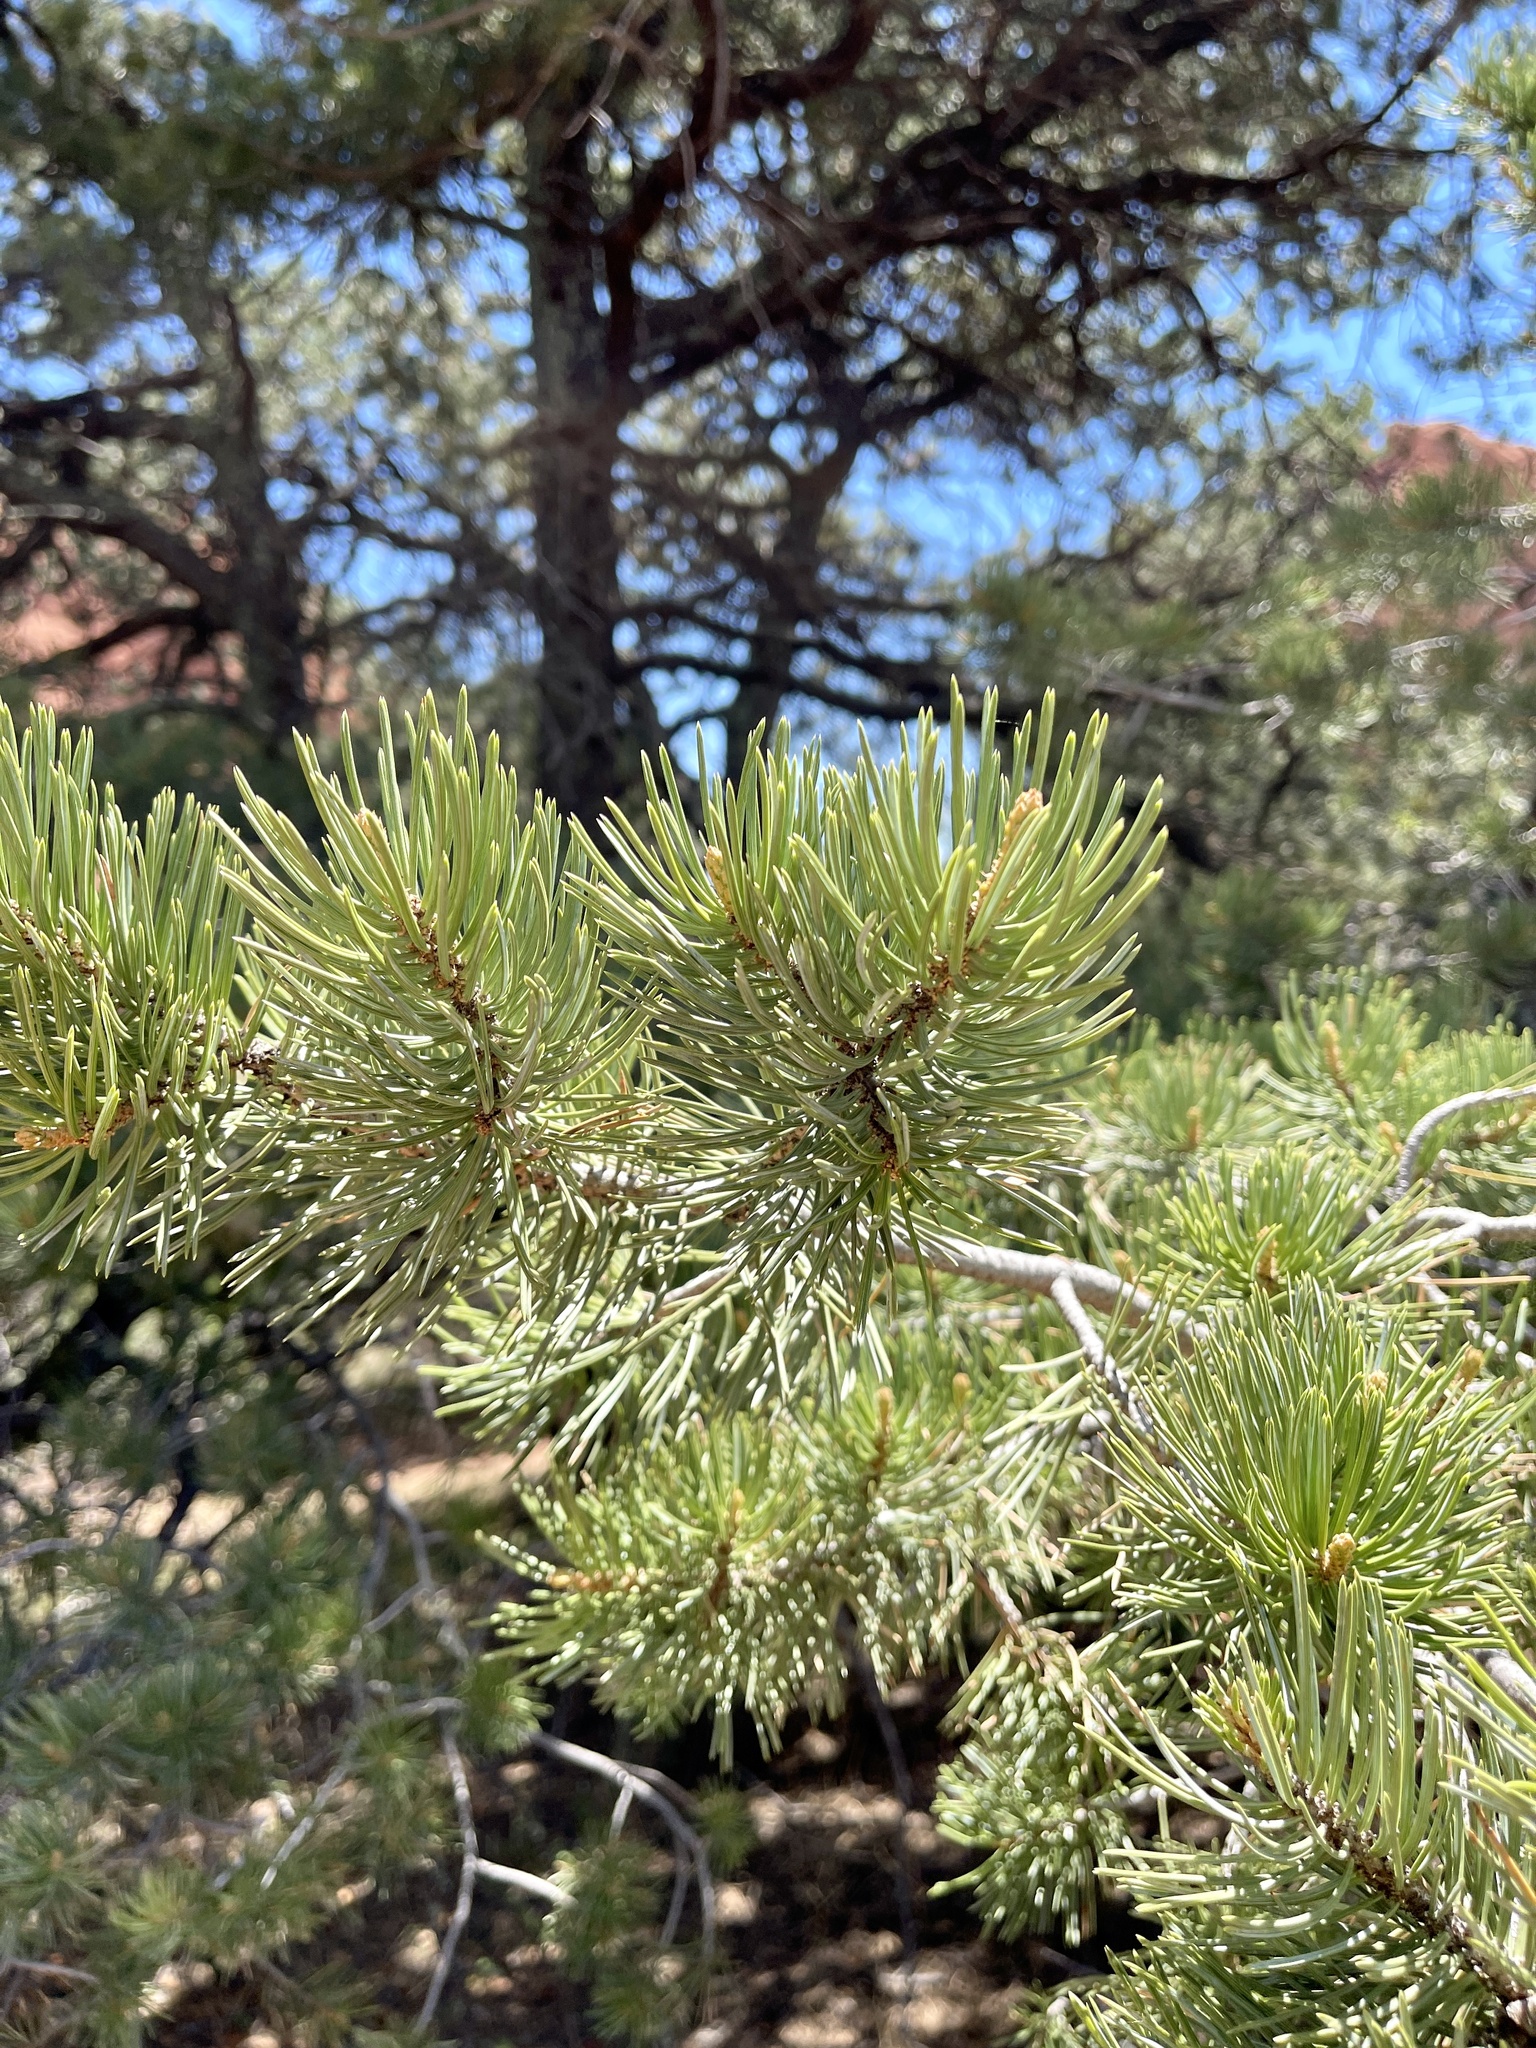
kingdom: Plantae
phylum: Tracheophyta
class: Pinopsida
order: Pinales
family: Pinaceae
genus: Pinus
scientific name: Pinus edulis
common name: Colorado pinyon
